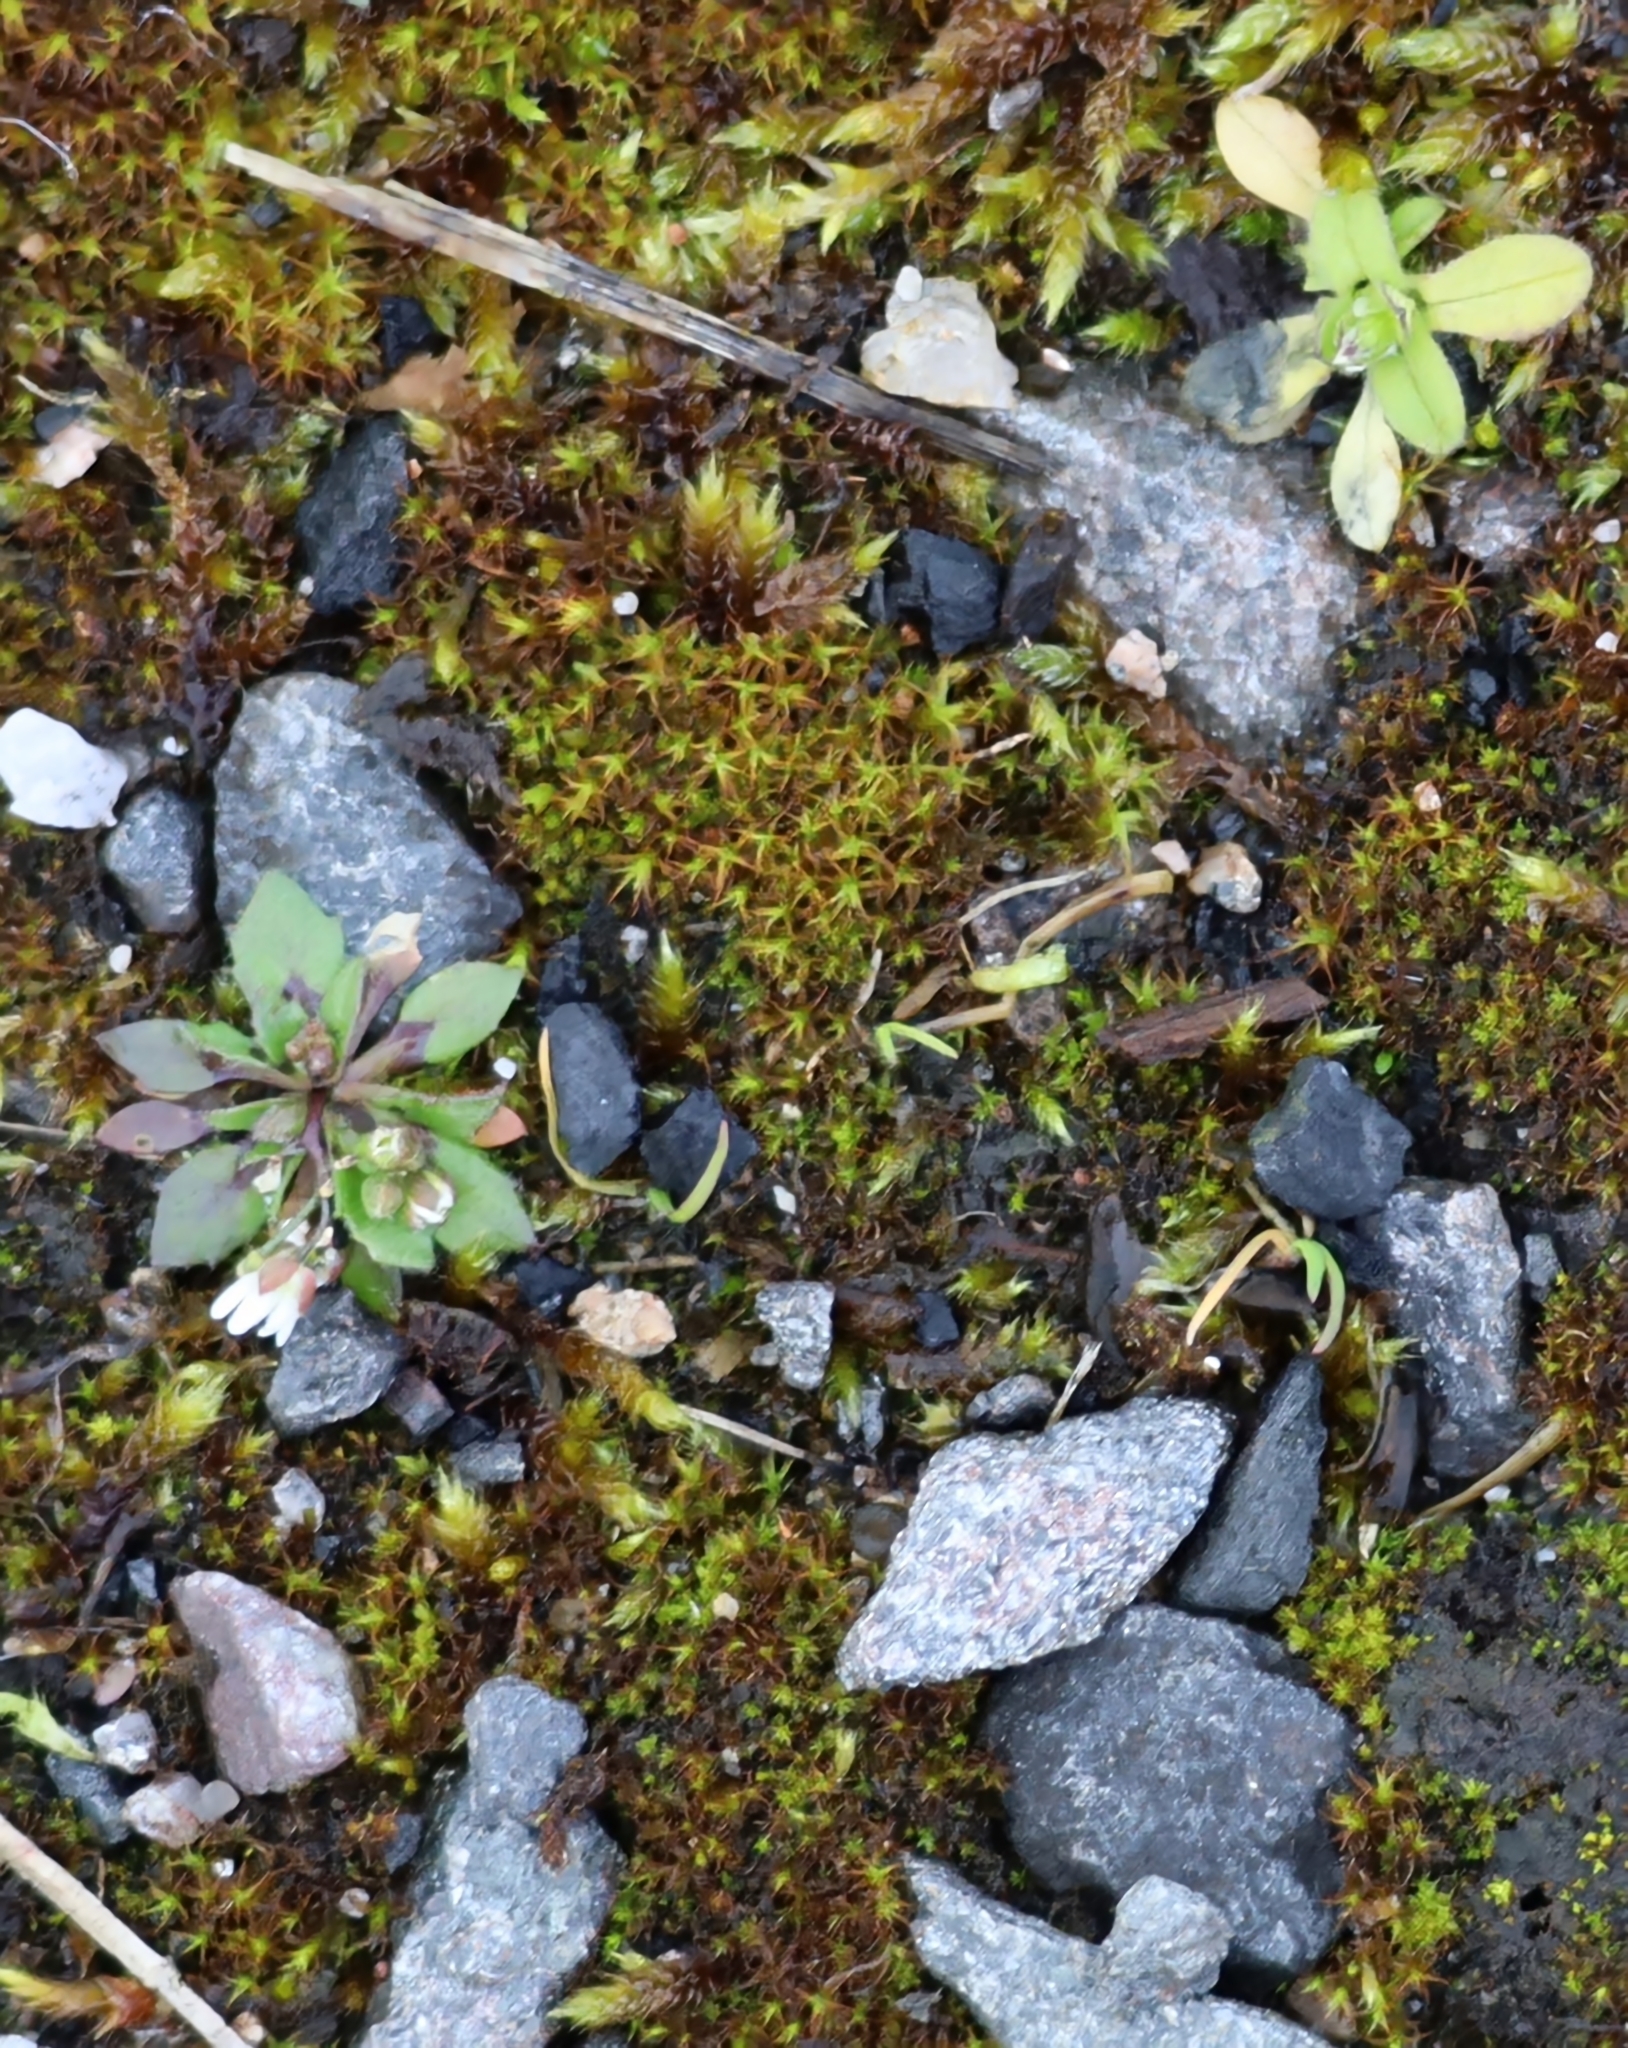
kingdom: Plantae
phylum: Tracheophyta
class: Magnoliopsida
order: Brassicales
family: Brassicaceae
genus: Draba
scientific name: Draba verna
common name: Spring draba
